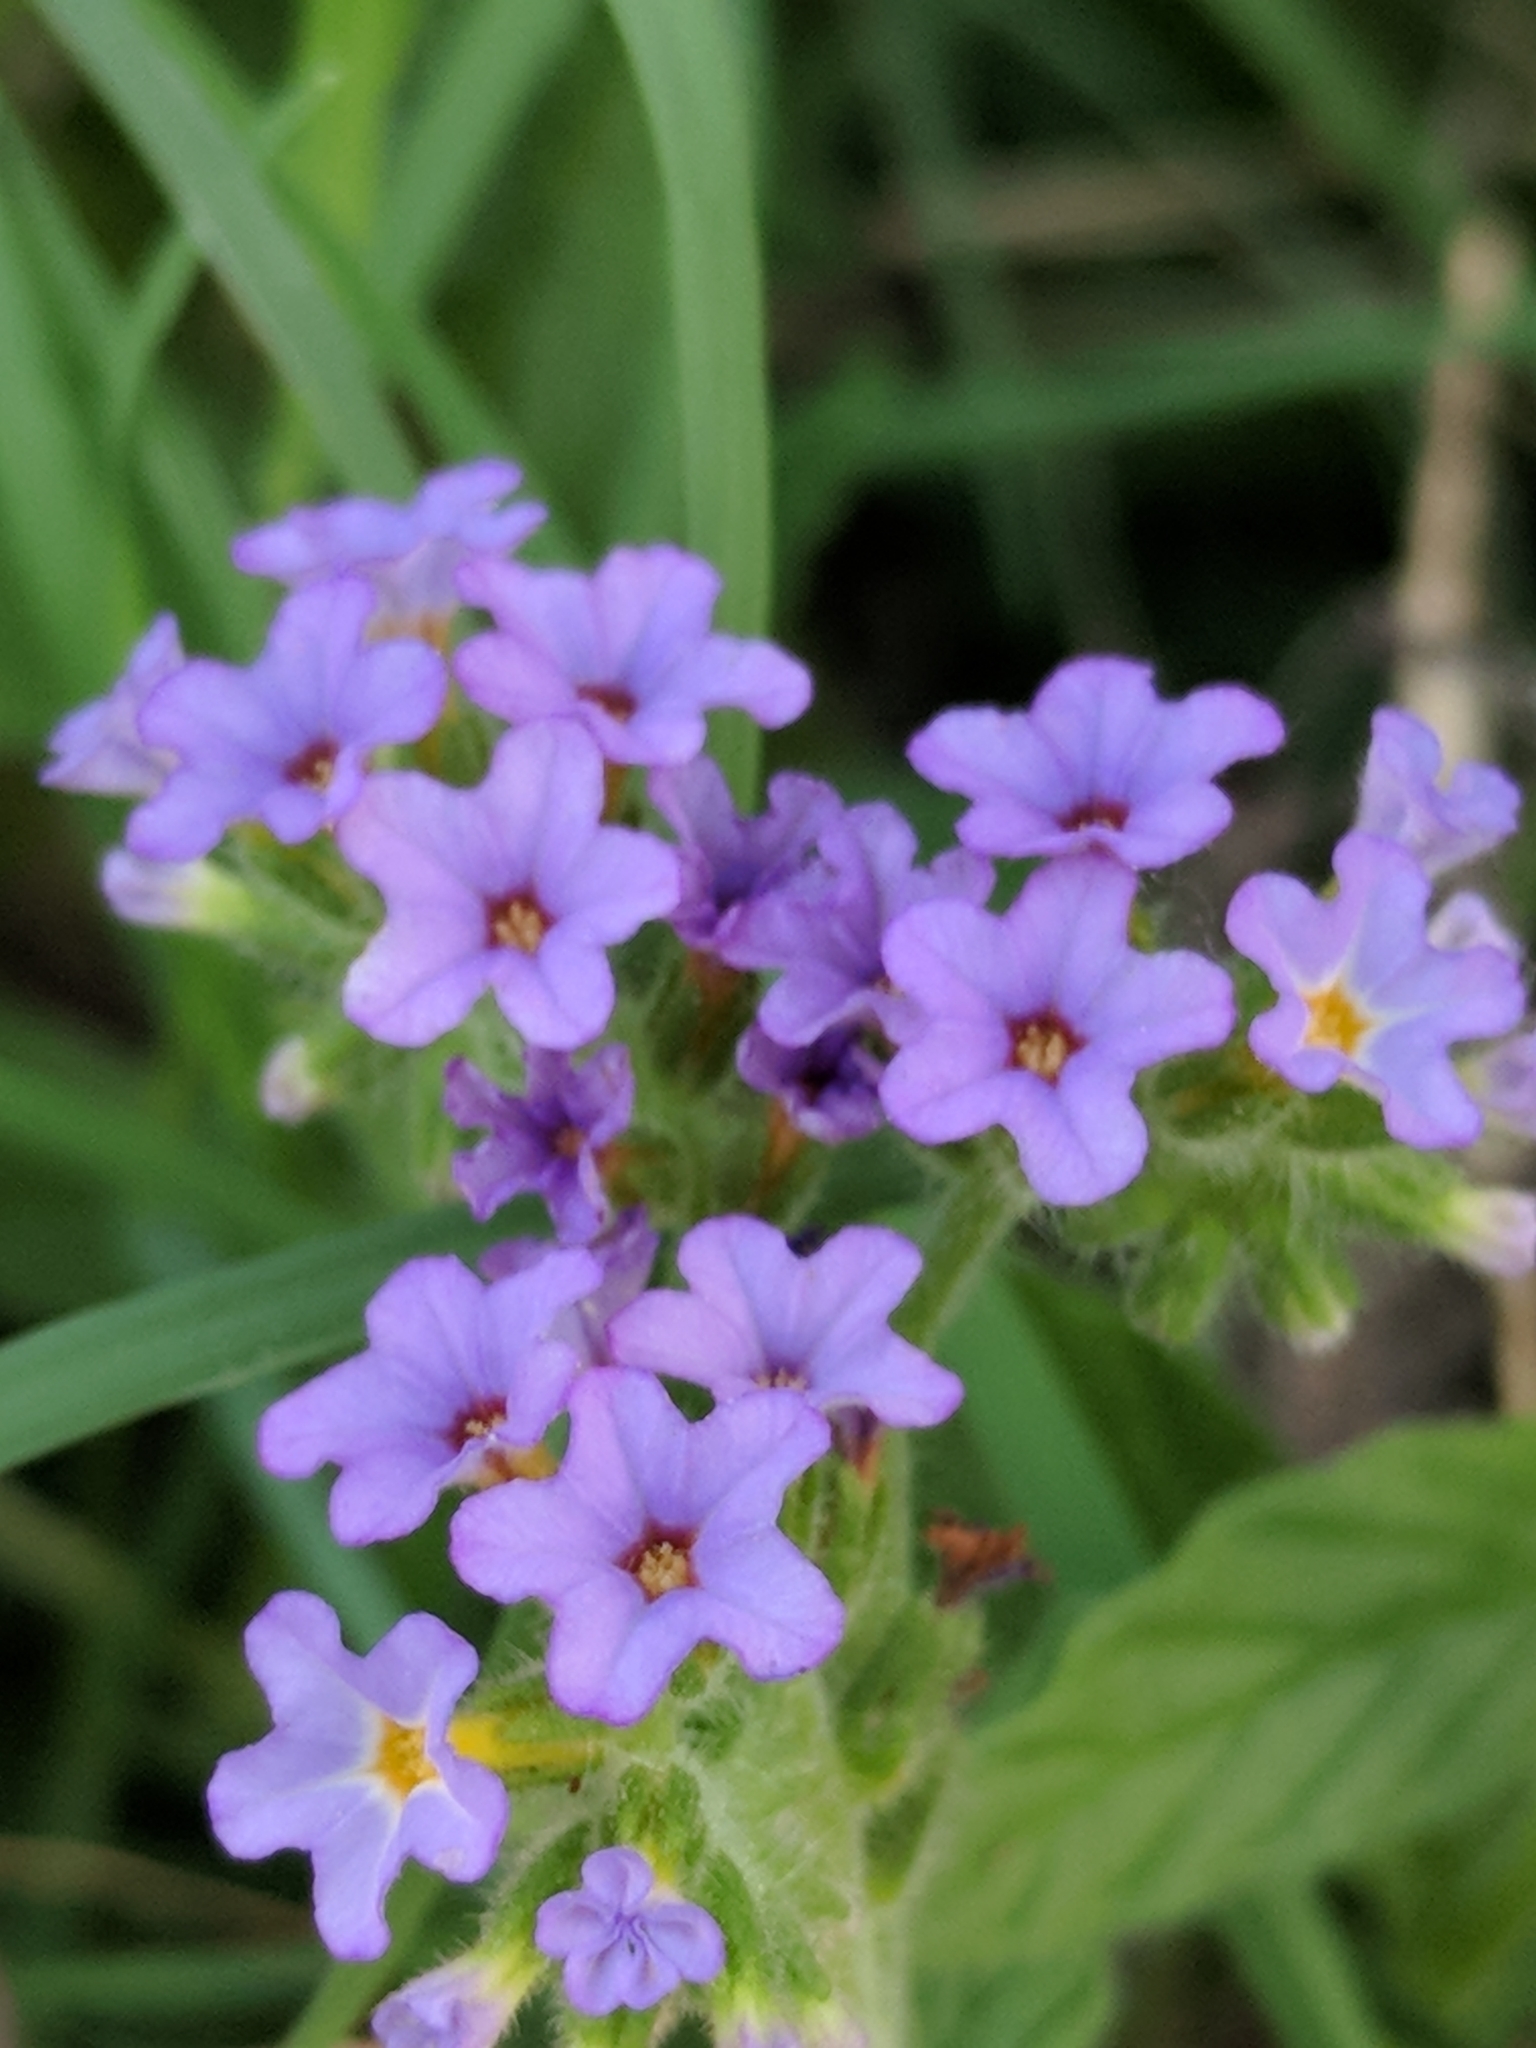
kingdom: Plantae
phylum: Tracheophyta
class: Magnoliopsida
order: Boraginales
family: Heliotropiaceae
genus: Heliotropium
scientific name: Heliotropium amplexicaule
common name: Clasping heliotrope
